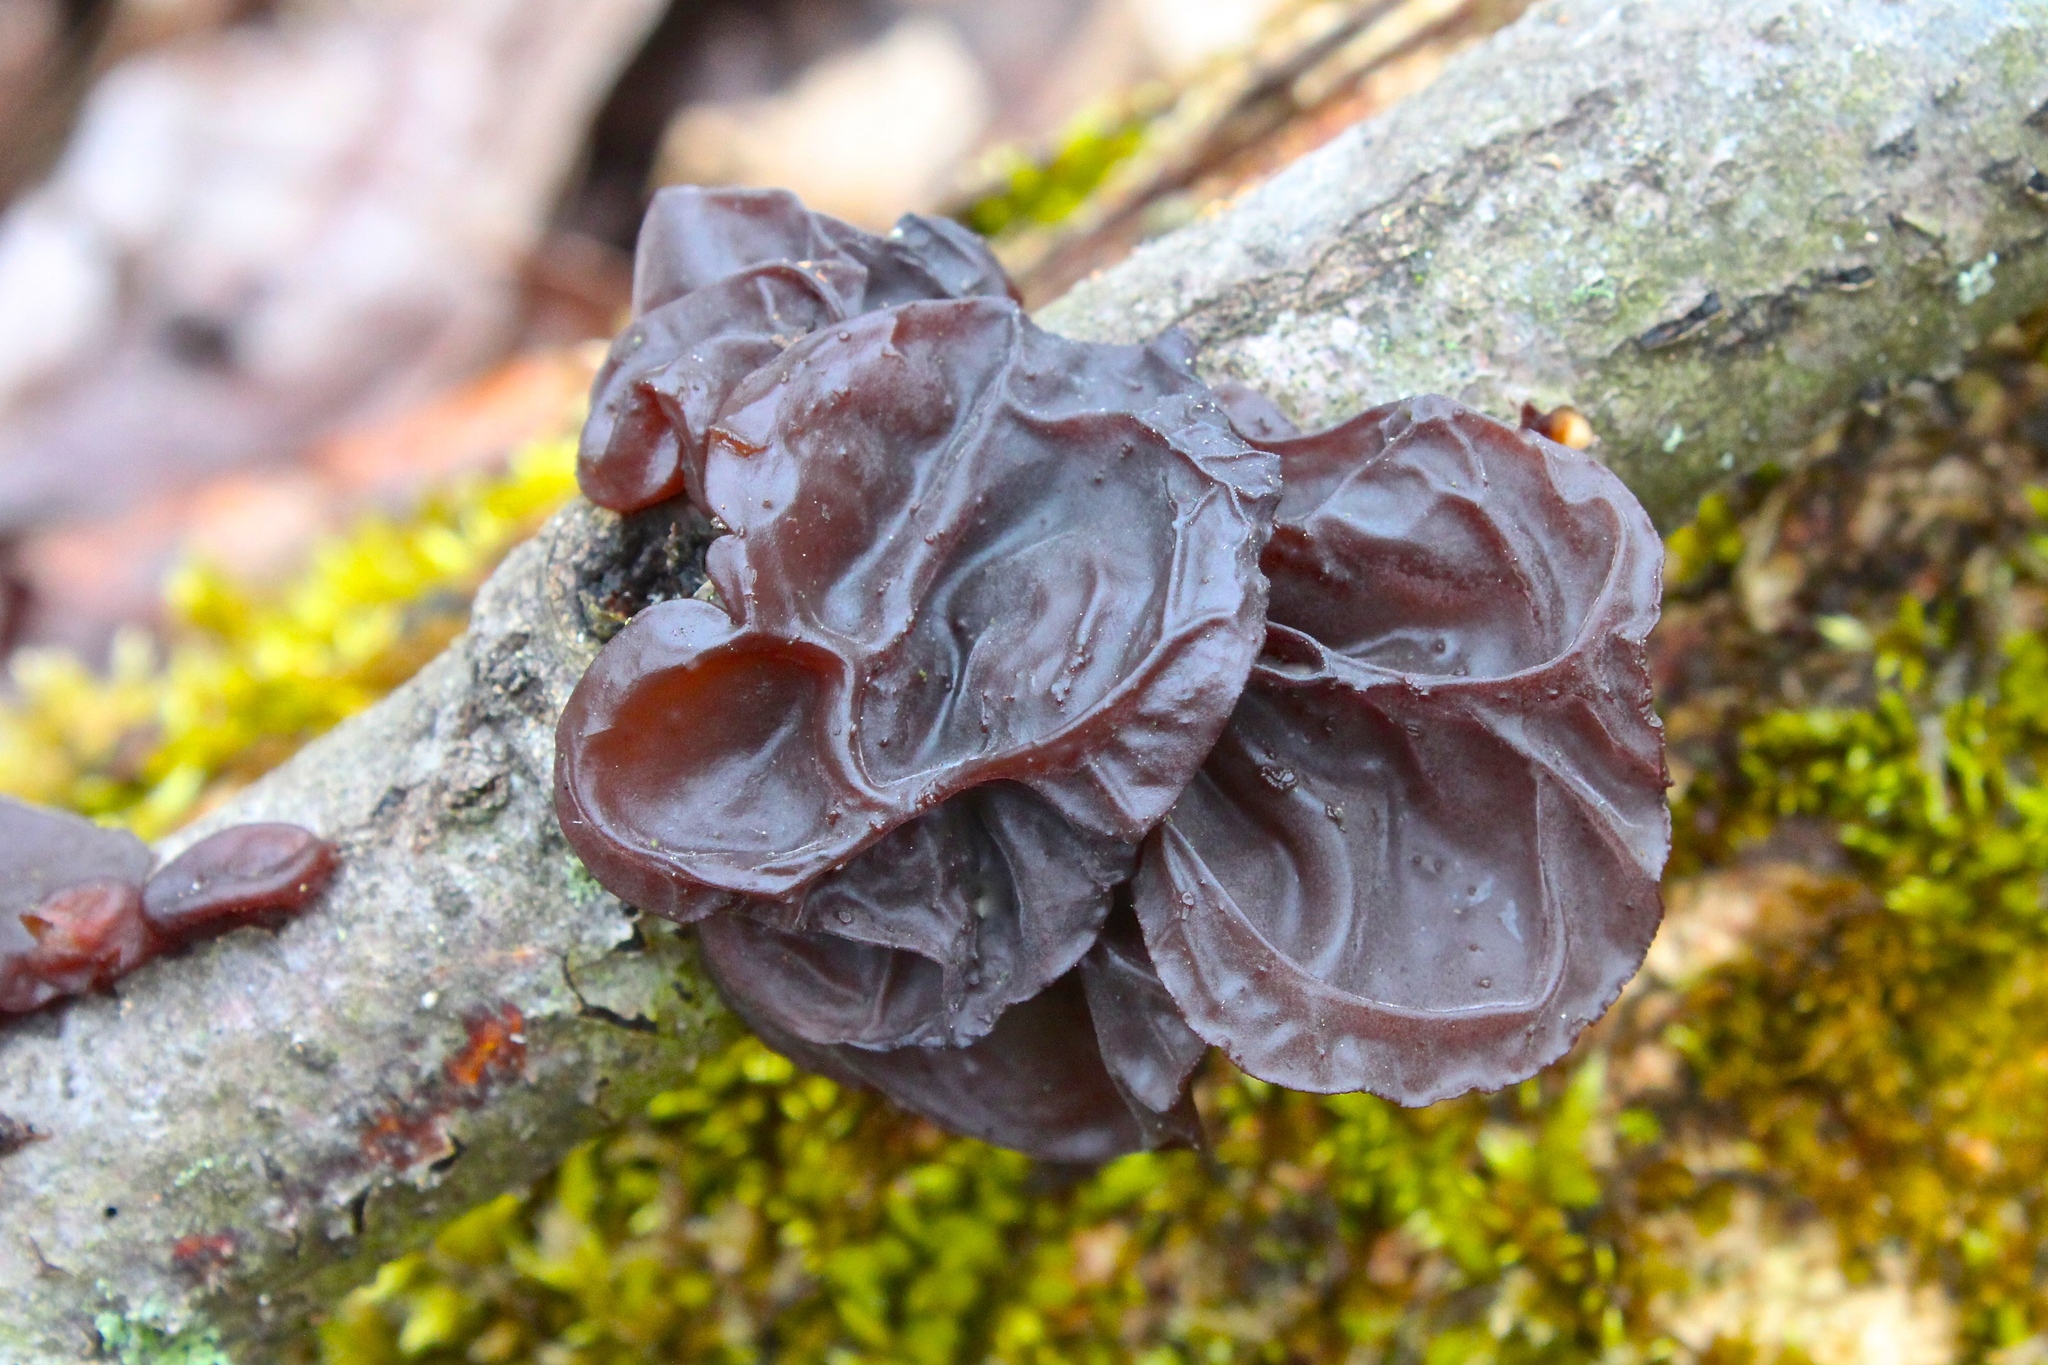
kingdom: Fungi
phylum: Basidiomycota
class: Agaricomycetes
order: Auriculariales
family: Auriculariaceae
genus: Exidia
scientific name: Exidia
